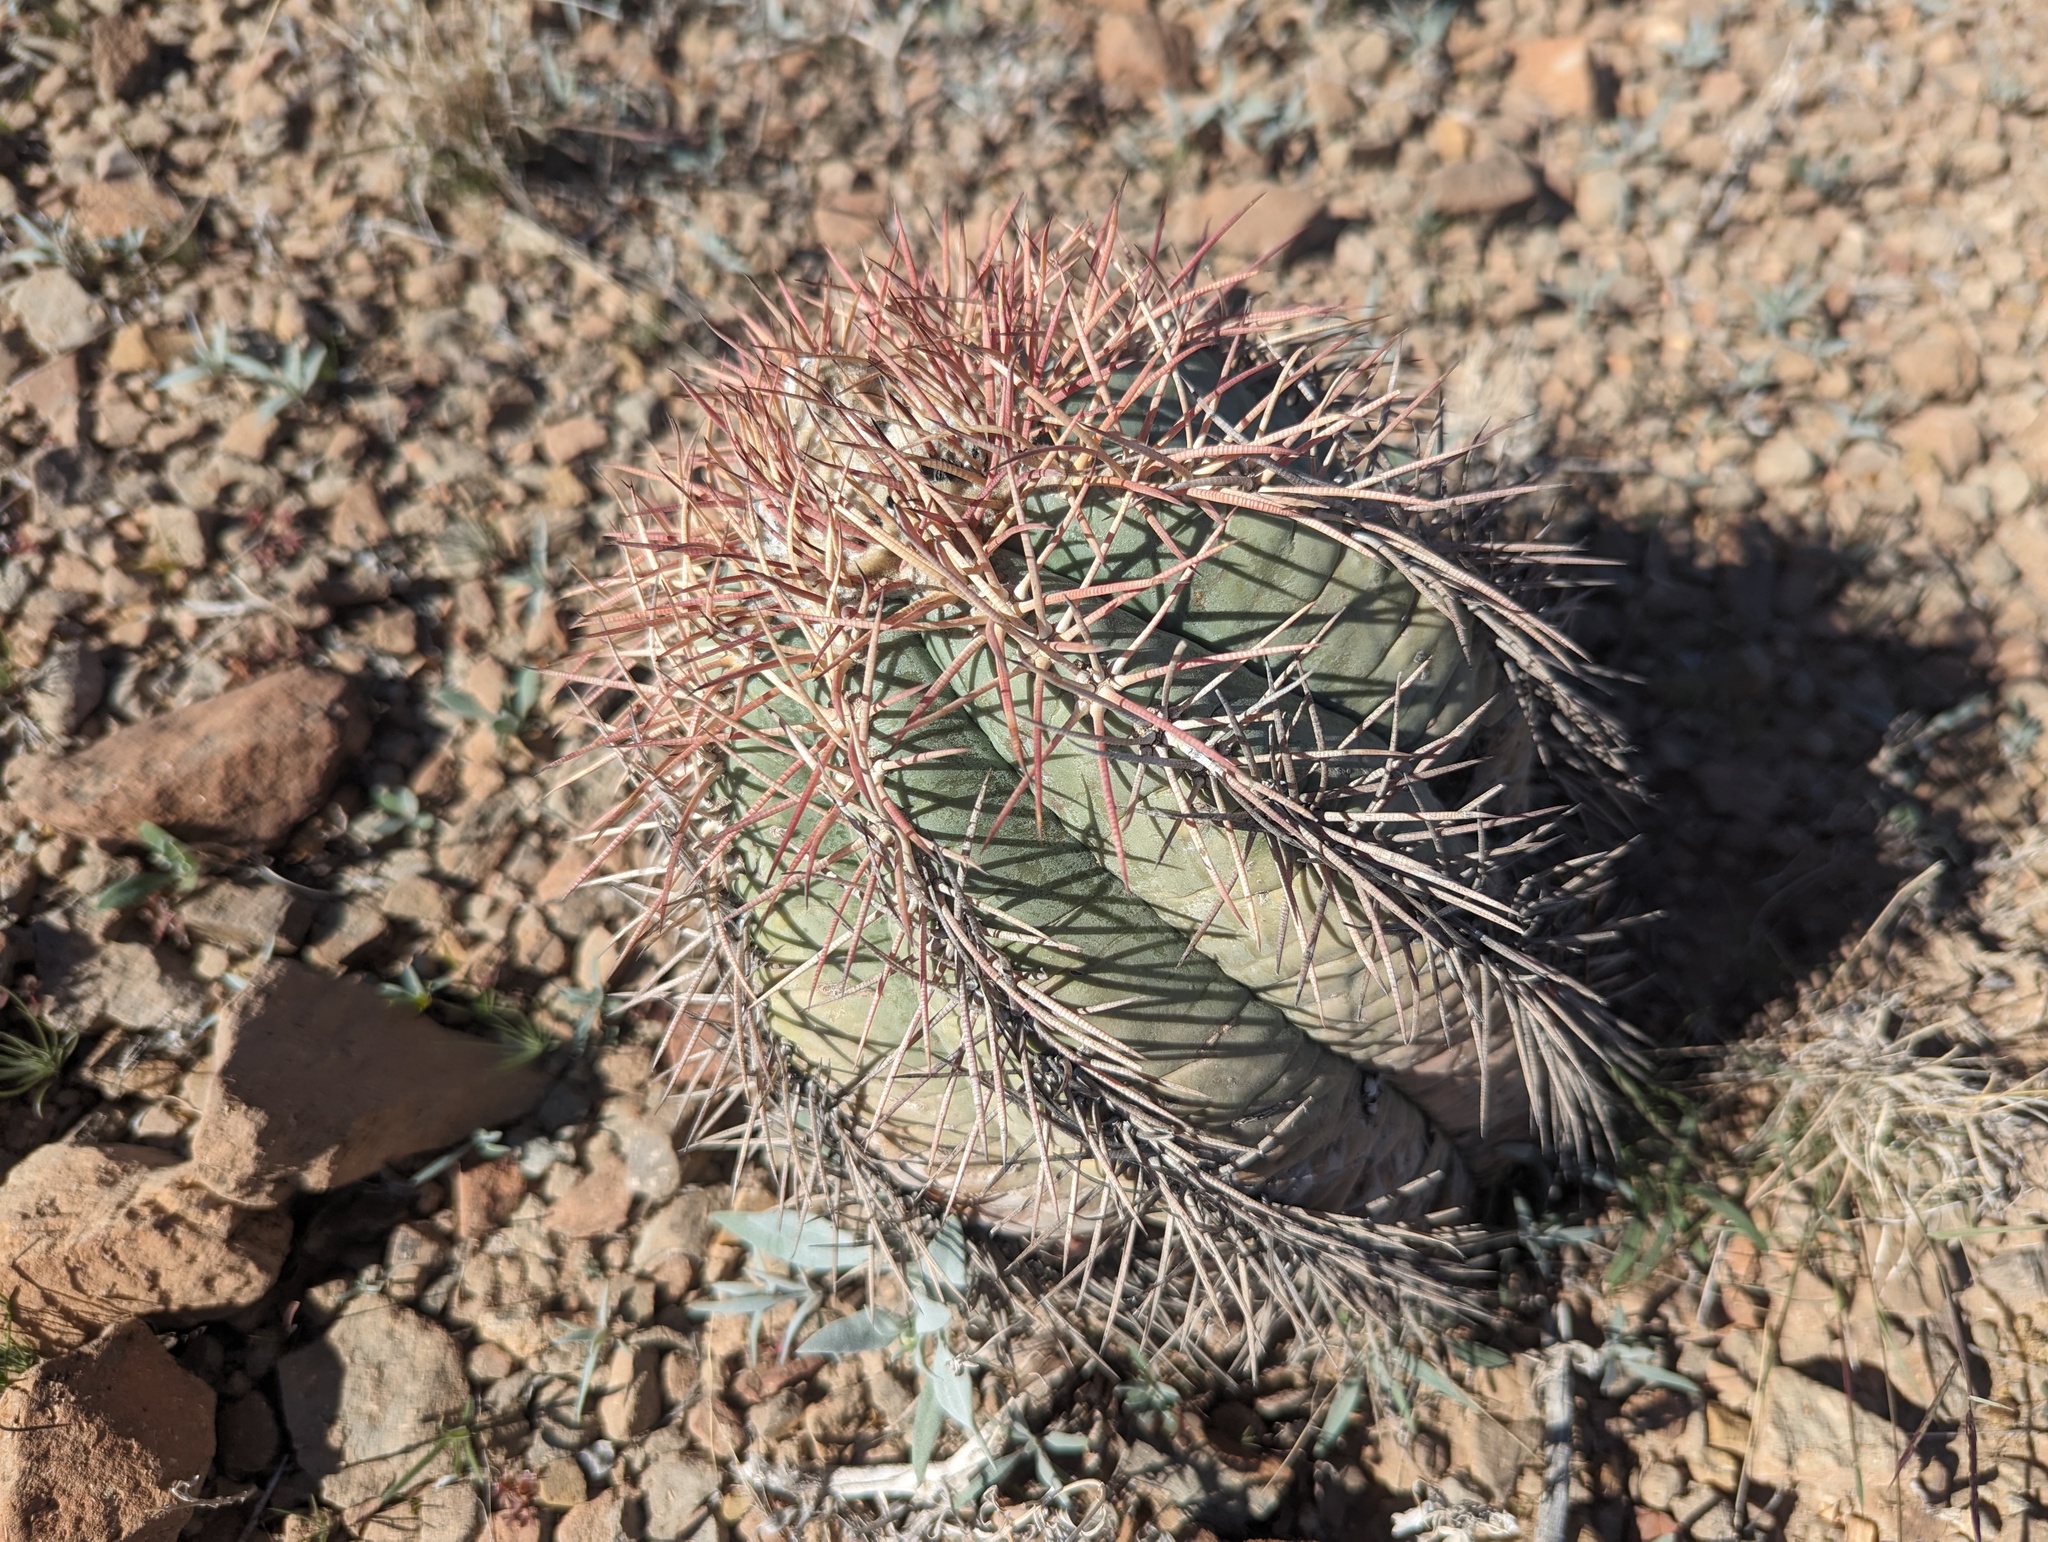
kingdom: Plantae
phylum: Tracheophyta
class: Magnoliopsida
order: Caryophyllales
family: Cactaceae
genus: Echinocactus
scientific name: Echinocactus horizonthalonius
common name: Devilshead
